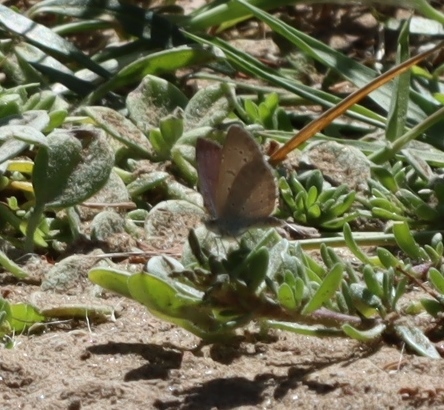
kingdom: Animalia
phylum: Arthropoda
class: Insecta
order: Lepidoptera
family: Lycaenidae
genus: Zizeeria
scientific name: Zizeeria knysna
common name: African grass blue
